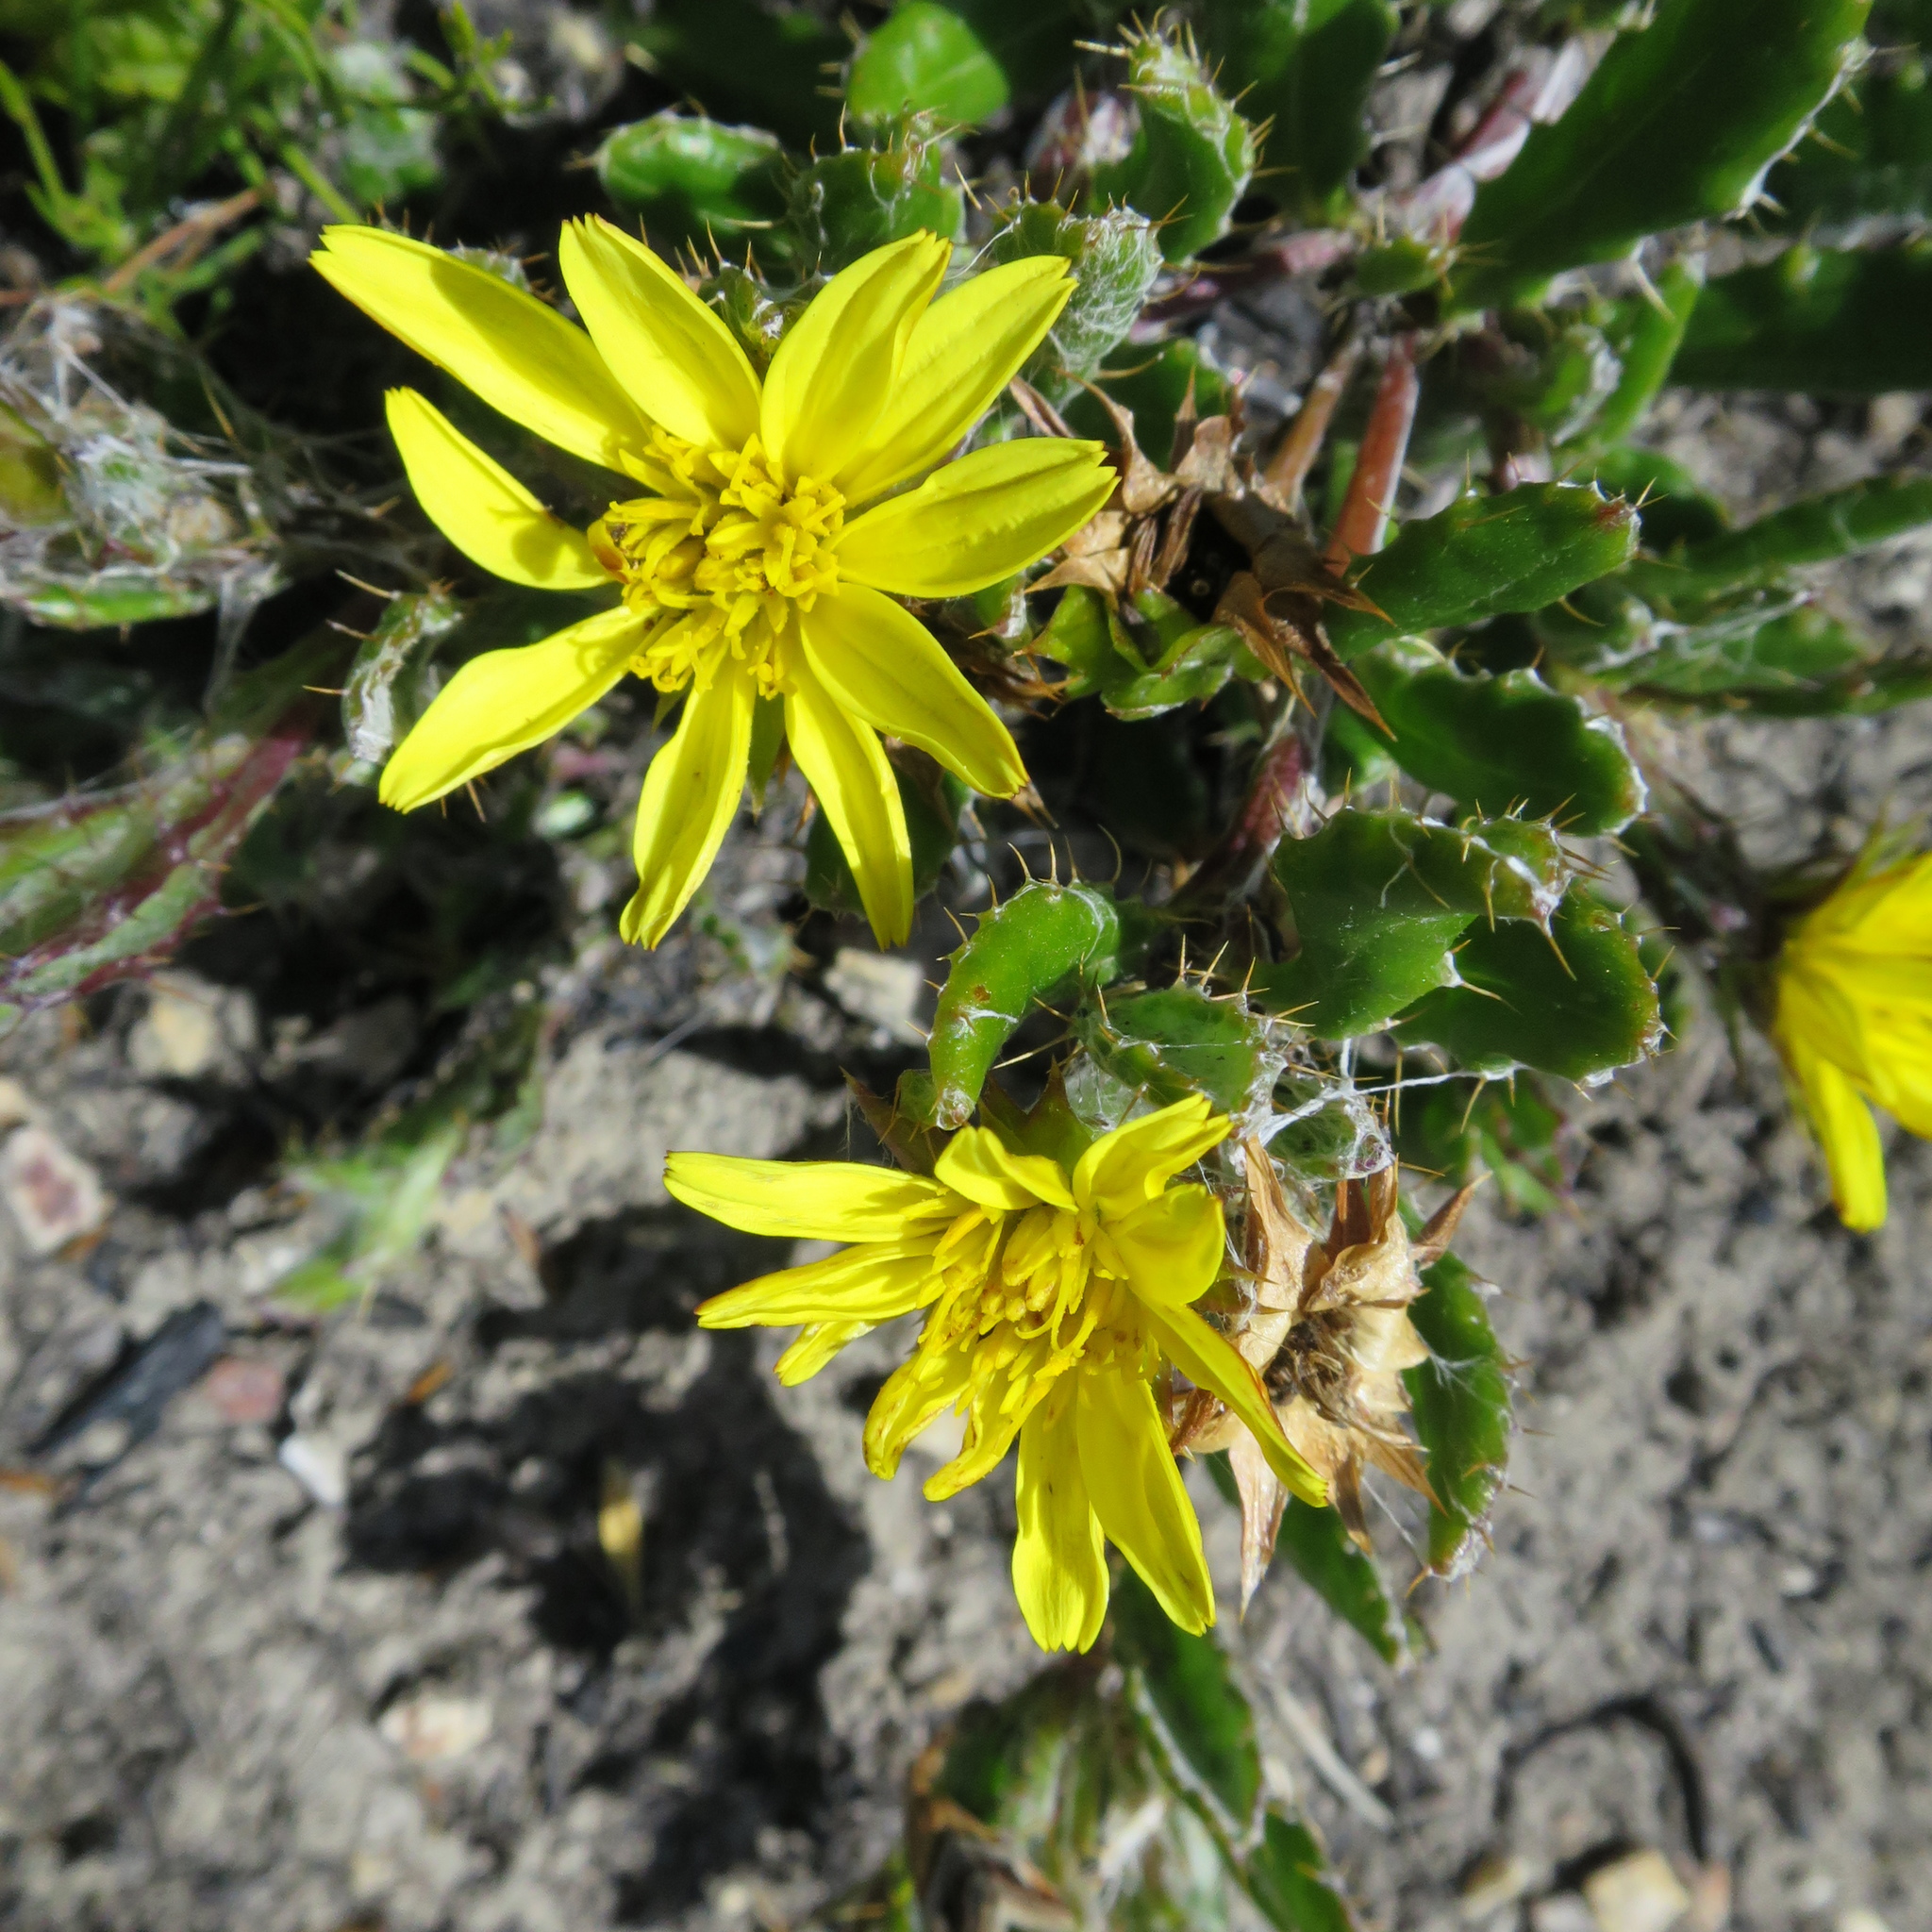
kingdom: Plantae
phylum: Tracheophyta
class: Magnoliopsida
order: Asterales
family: Asteraceae
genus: Cullumia
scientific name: Cullumia aculeata
